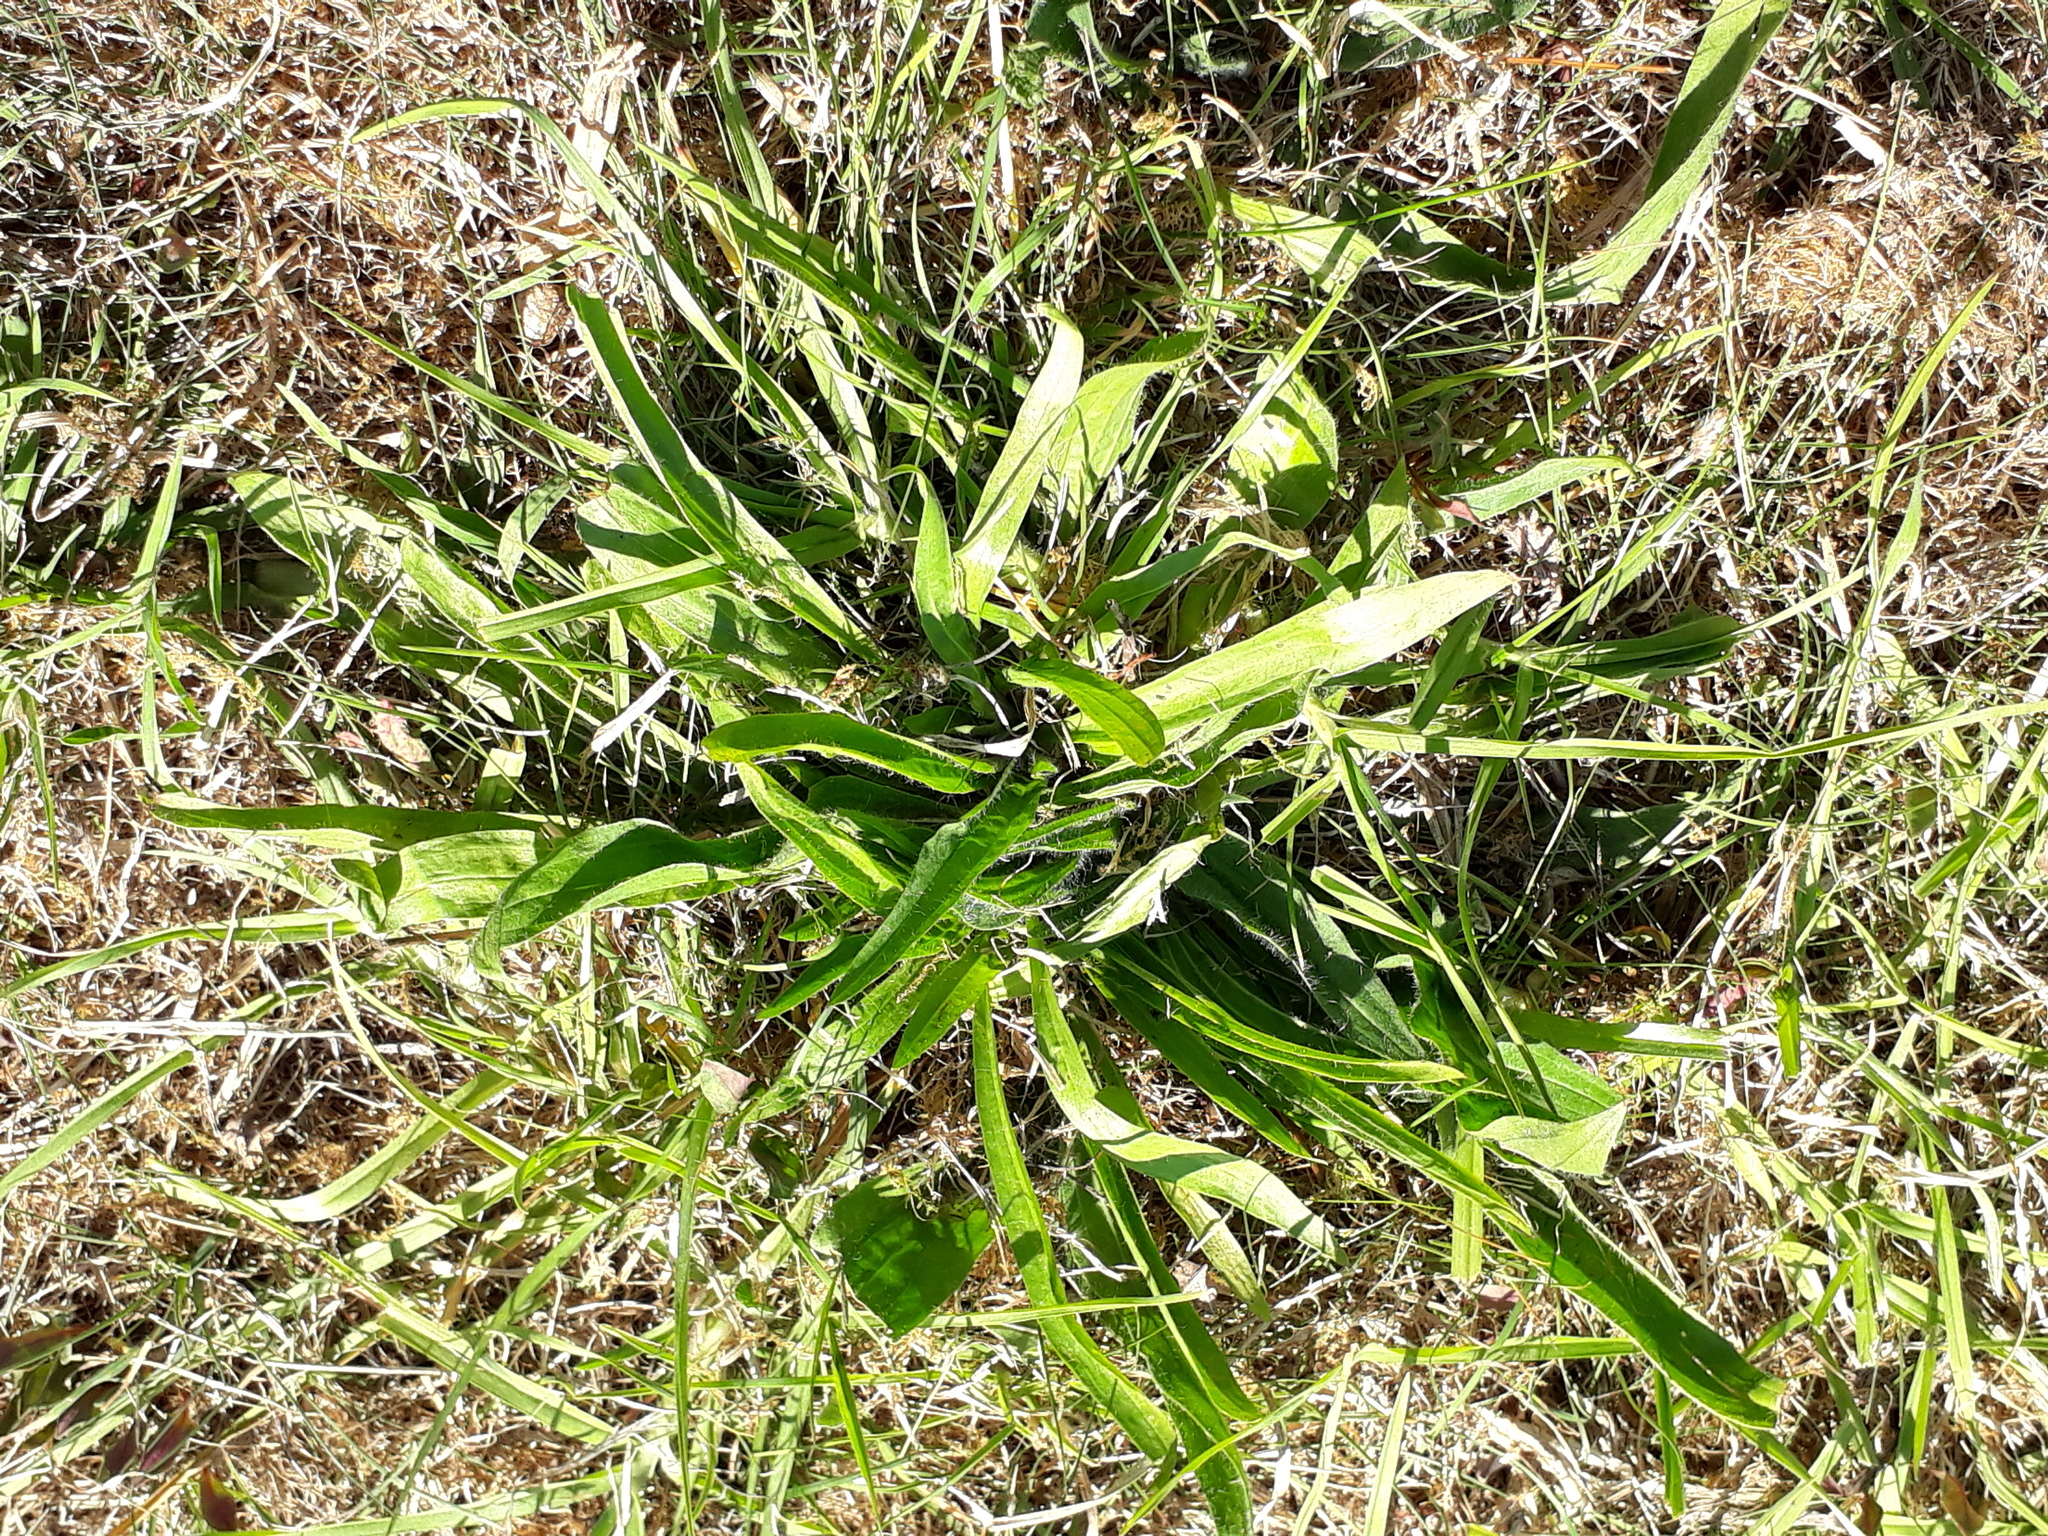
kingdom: Plantae
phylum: Tracheophyta
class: Magnoliopsida
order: Lamiales
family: Plantaginaceae
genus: Plantago
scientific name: Plantago lanceolata
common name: Ribwort plantain
